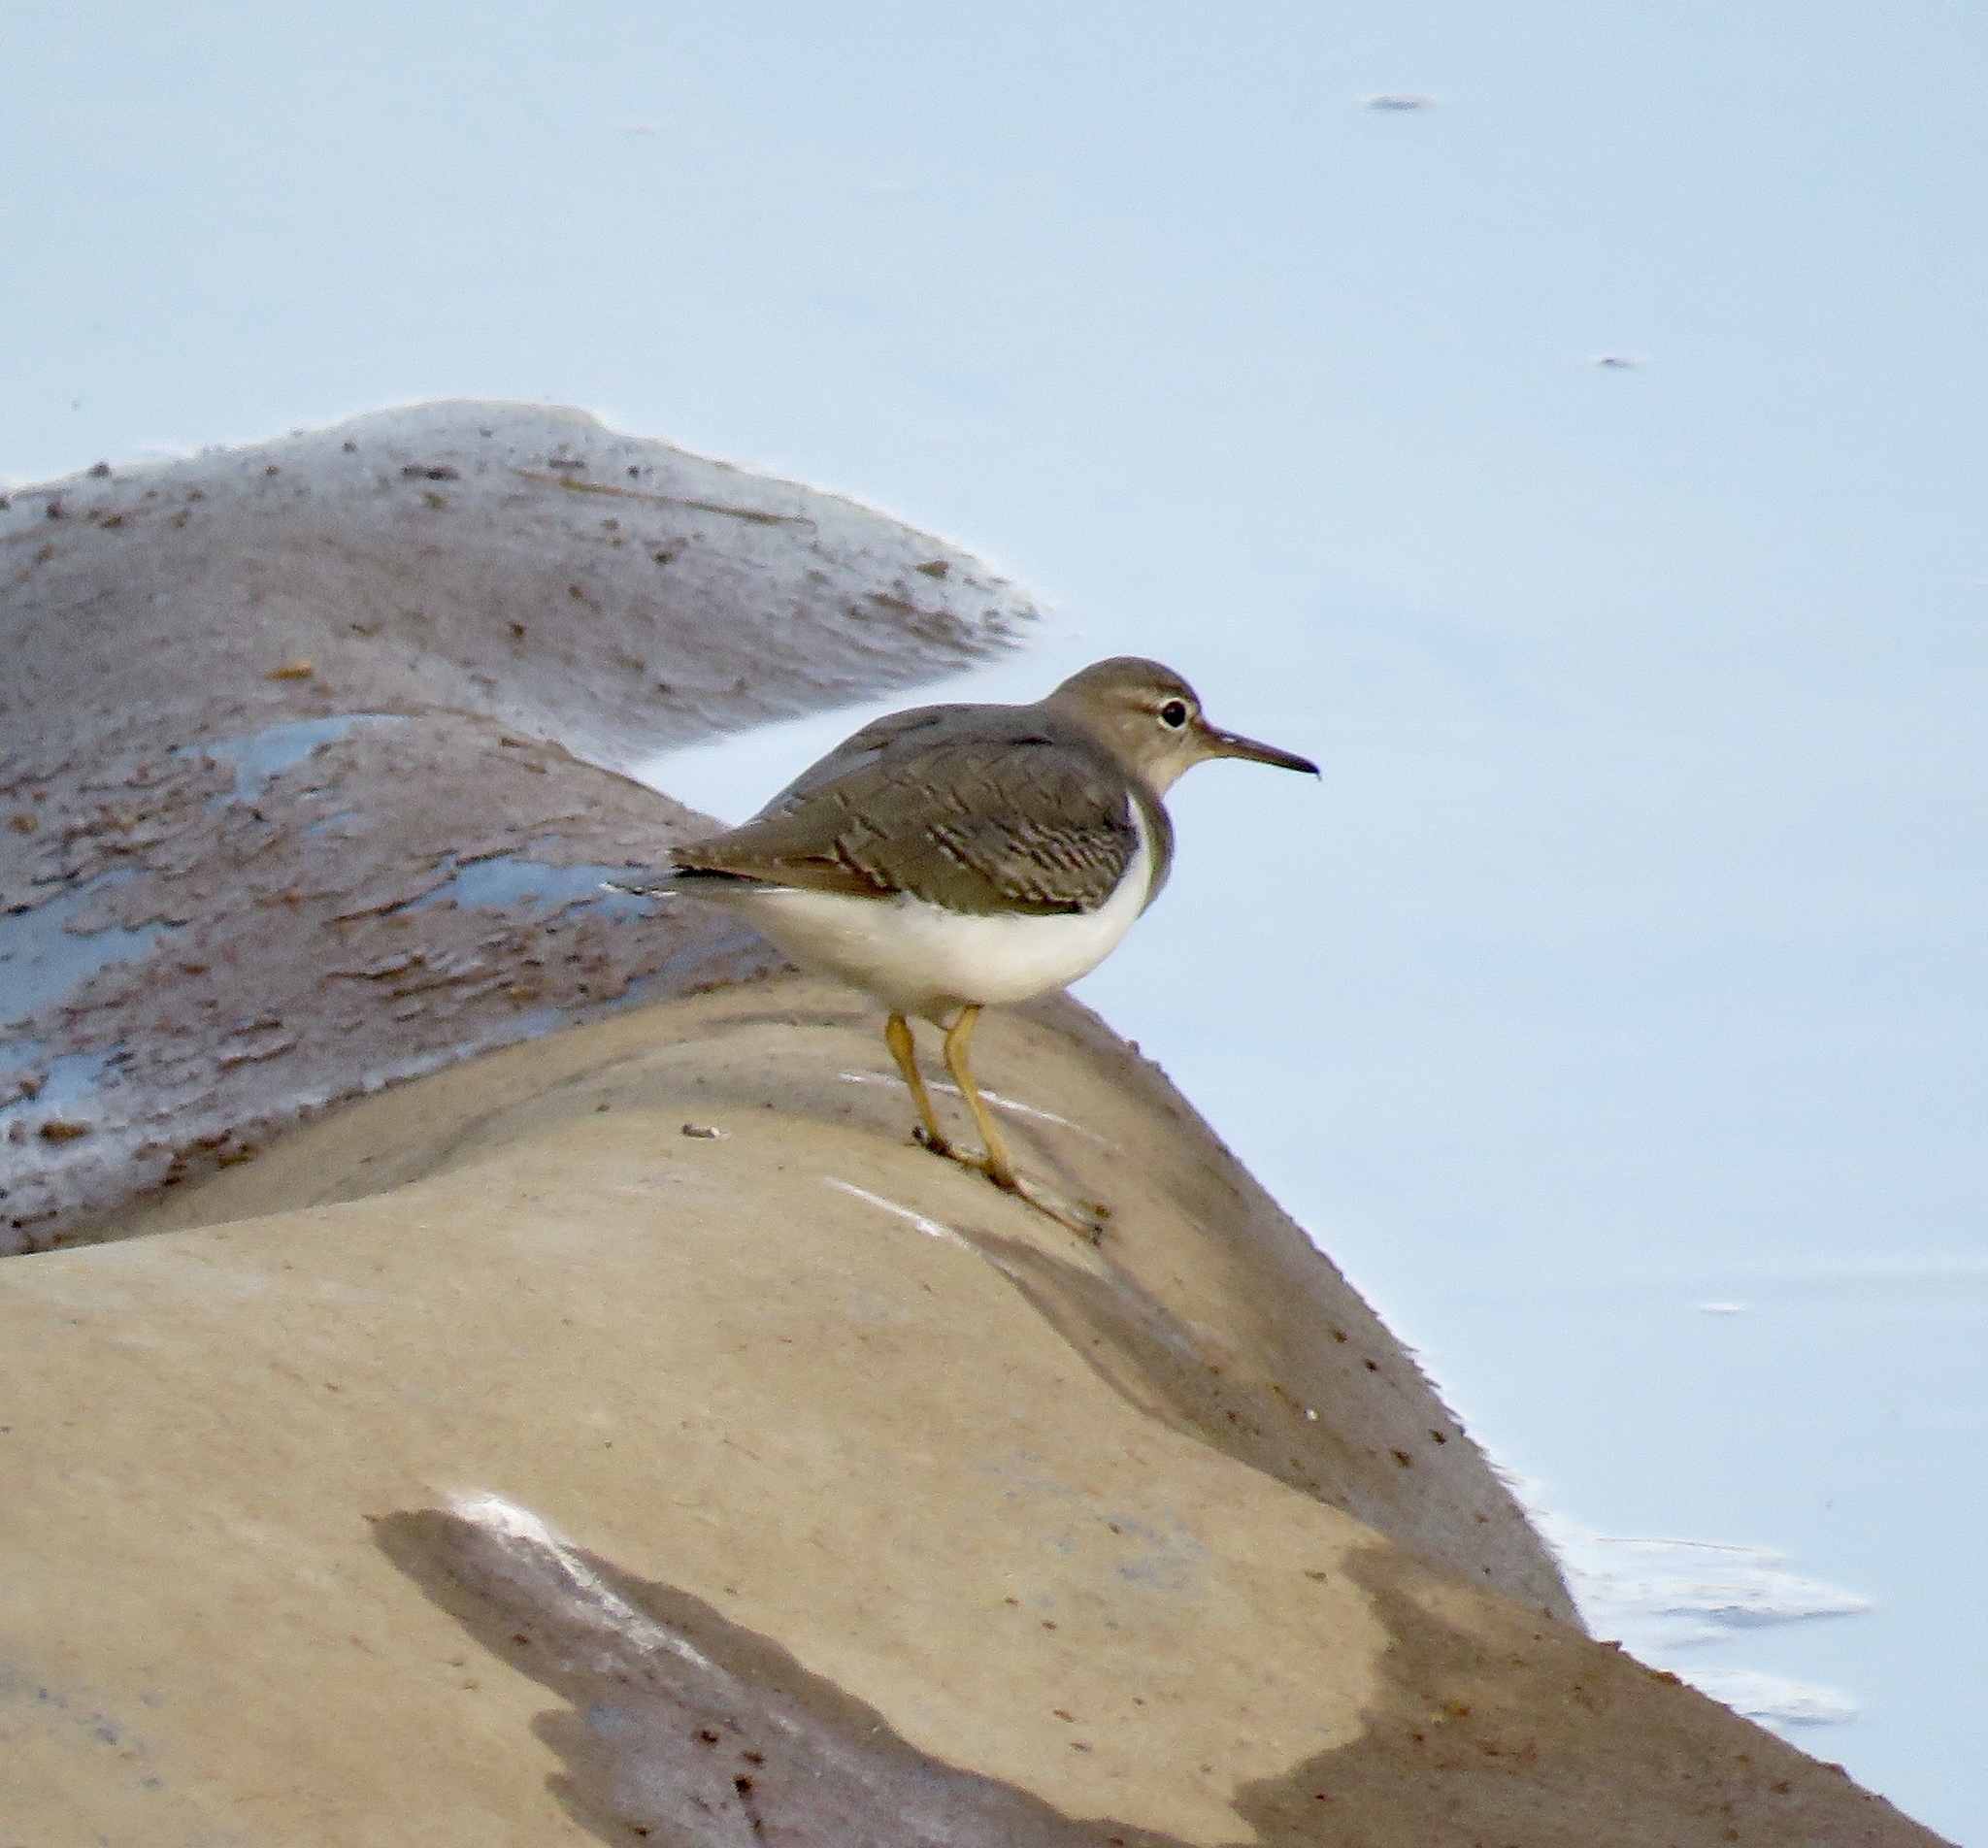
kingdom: Animalia
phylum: Chordata
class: Aves
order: Charadriiformes
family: Scolopacidae
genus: Actitis
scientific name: Actitis macularius
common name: Spotted sandpiper
